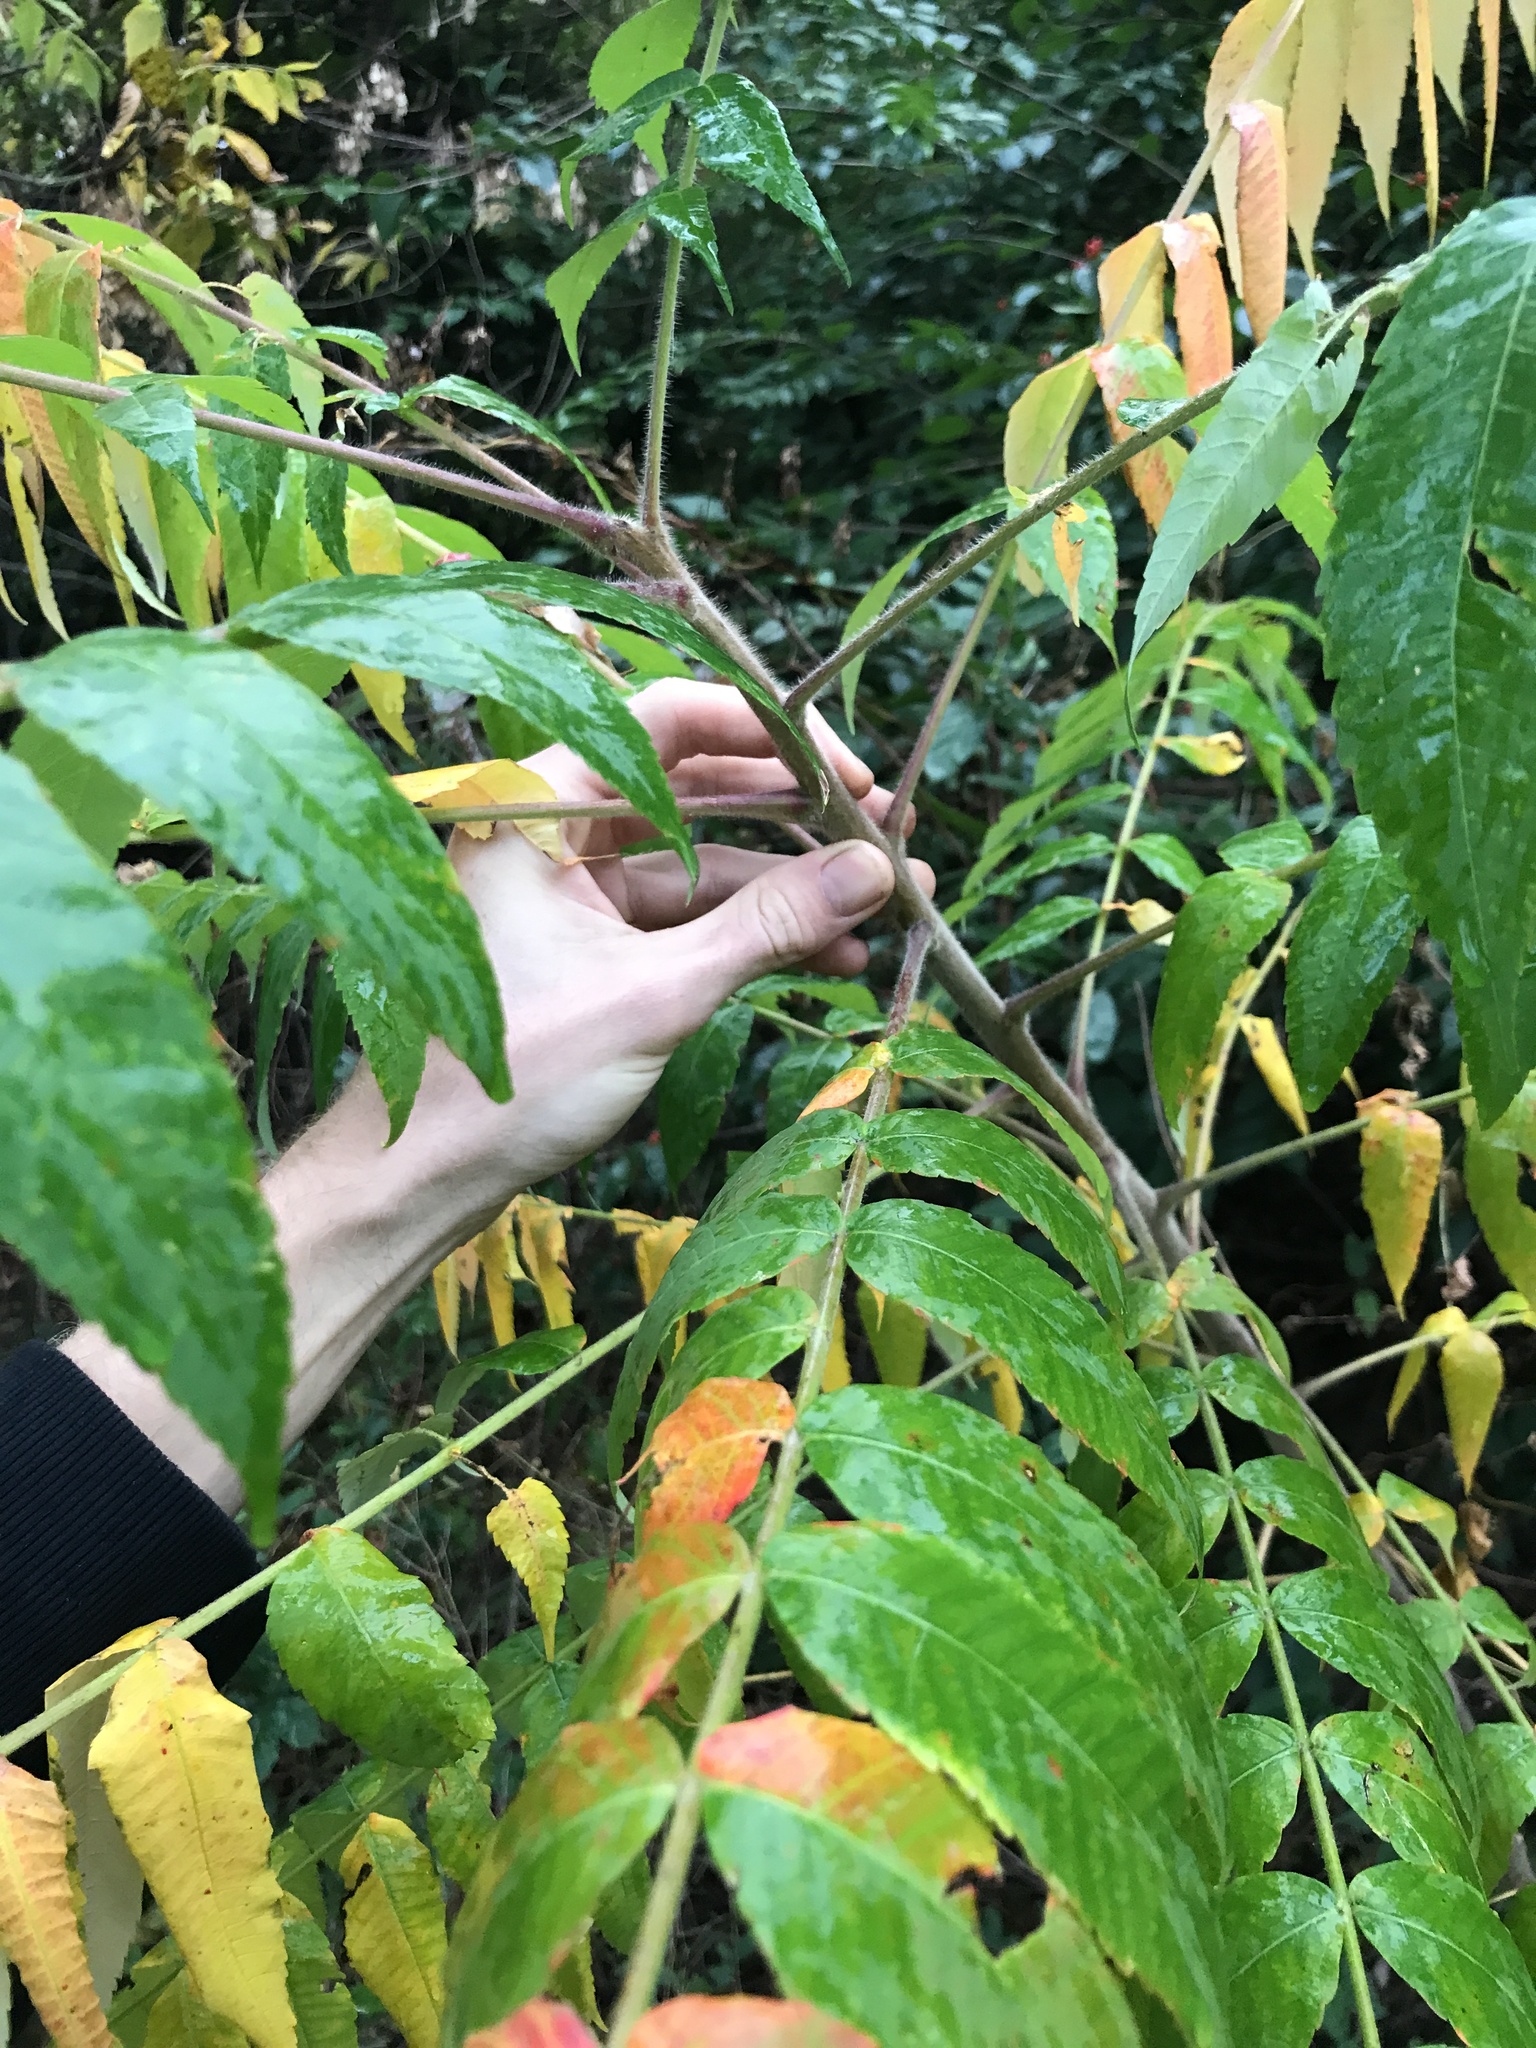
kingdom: Plantae
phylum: Tracheophyta
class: Magnoliopsida
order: Sapindales
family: Anacardiaceae
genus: Rhus
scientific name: Rhus typhina
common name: Staghorn sumac
